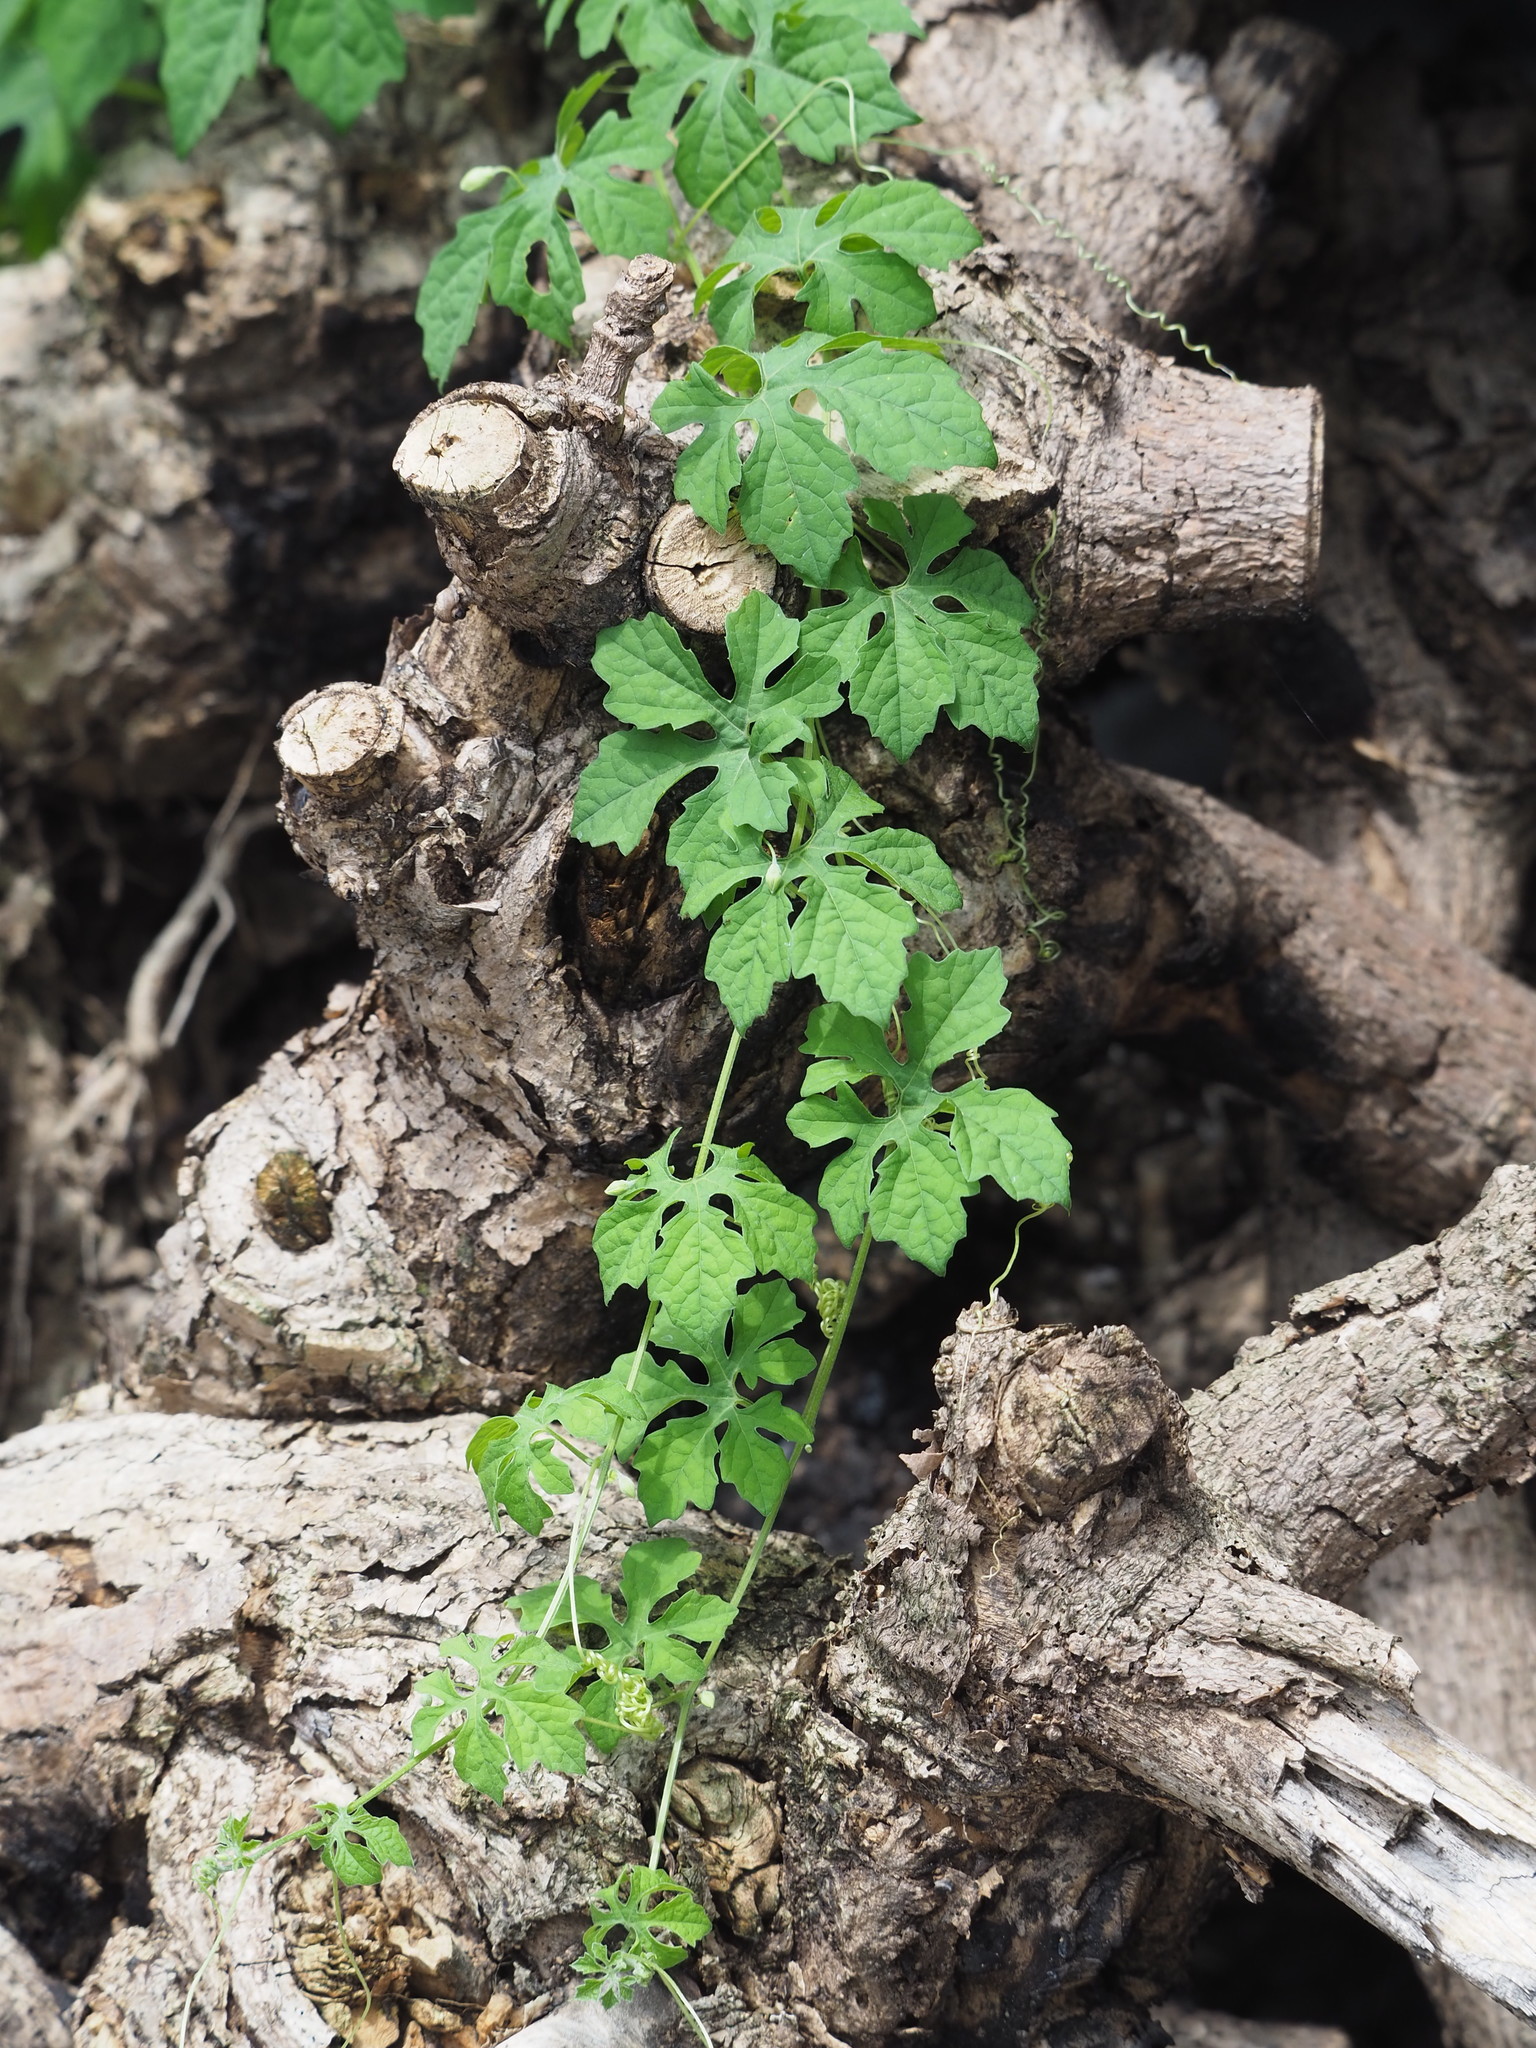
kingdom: Plantae
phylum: Tracheophyta
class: Magnoliopsida
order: Cucurbitales
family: Cucurbitaceae
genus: Momordica
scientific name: Momordica charantia
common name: Balsampear
